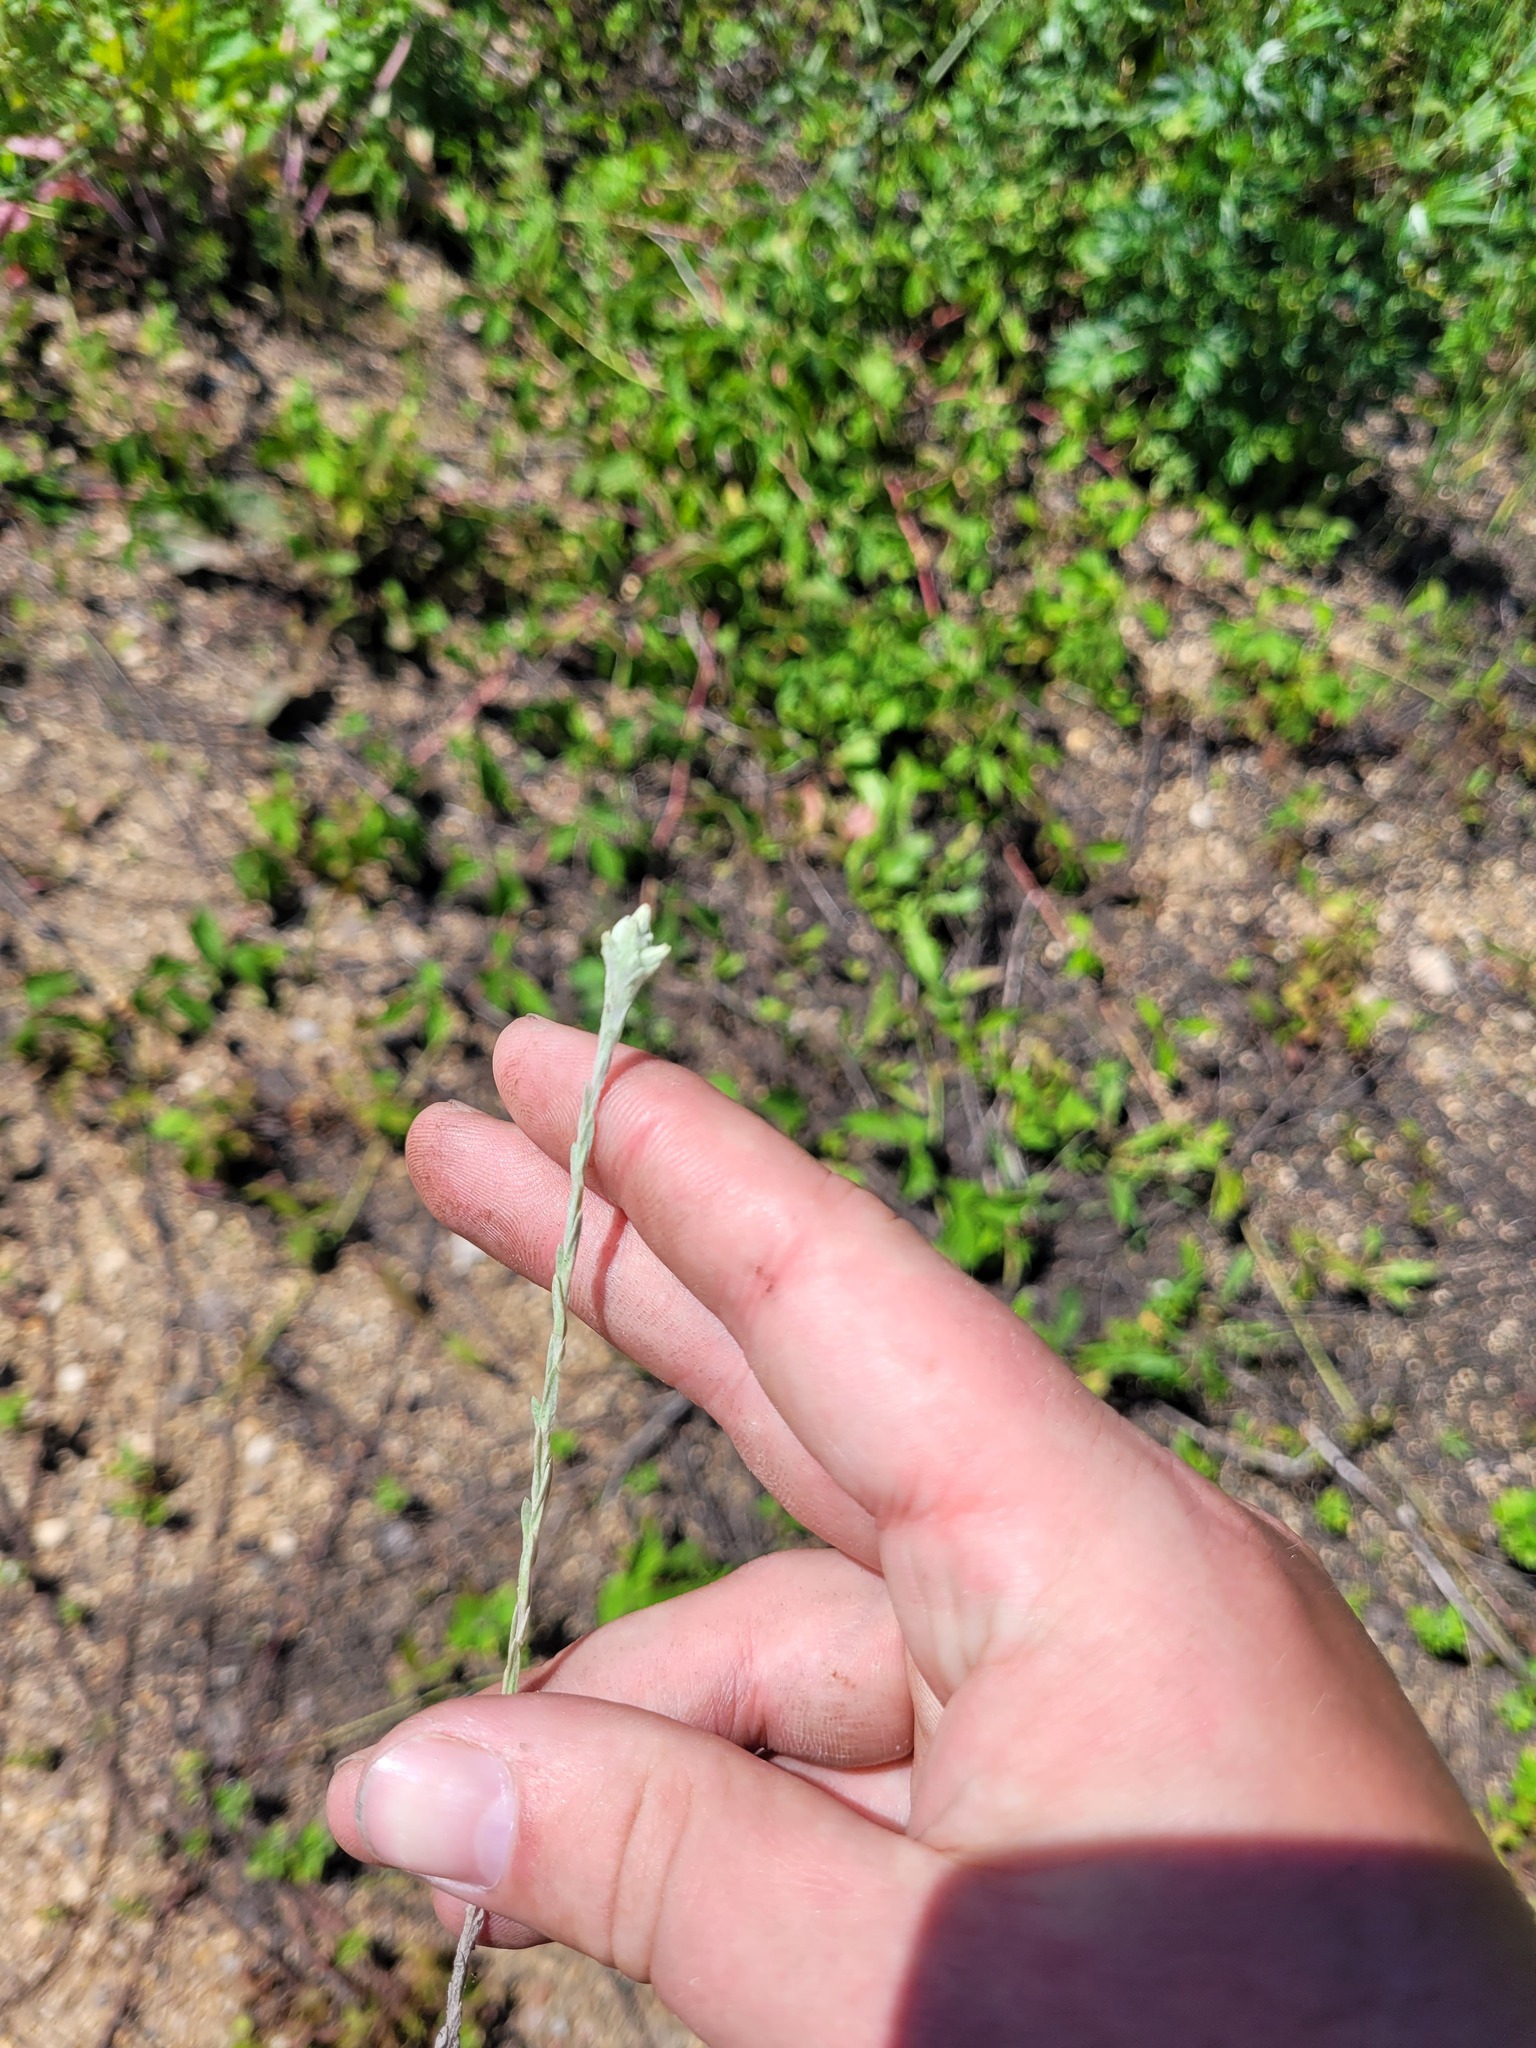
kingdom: Plantae
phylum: Tracheophyta
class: Magnoliopsida
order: Asterales
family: Asteraceae
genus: Filago
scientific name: Filago arvensis
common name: Field cudweed
